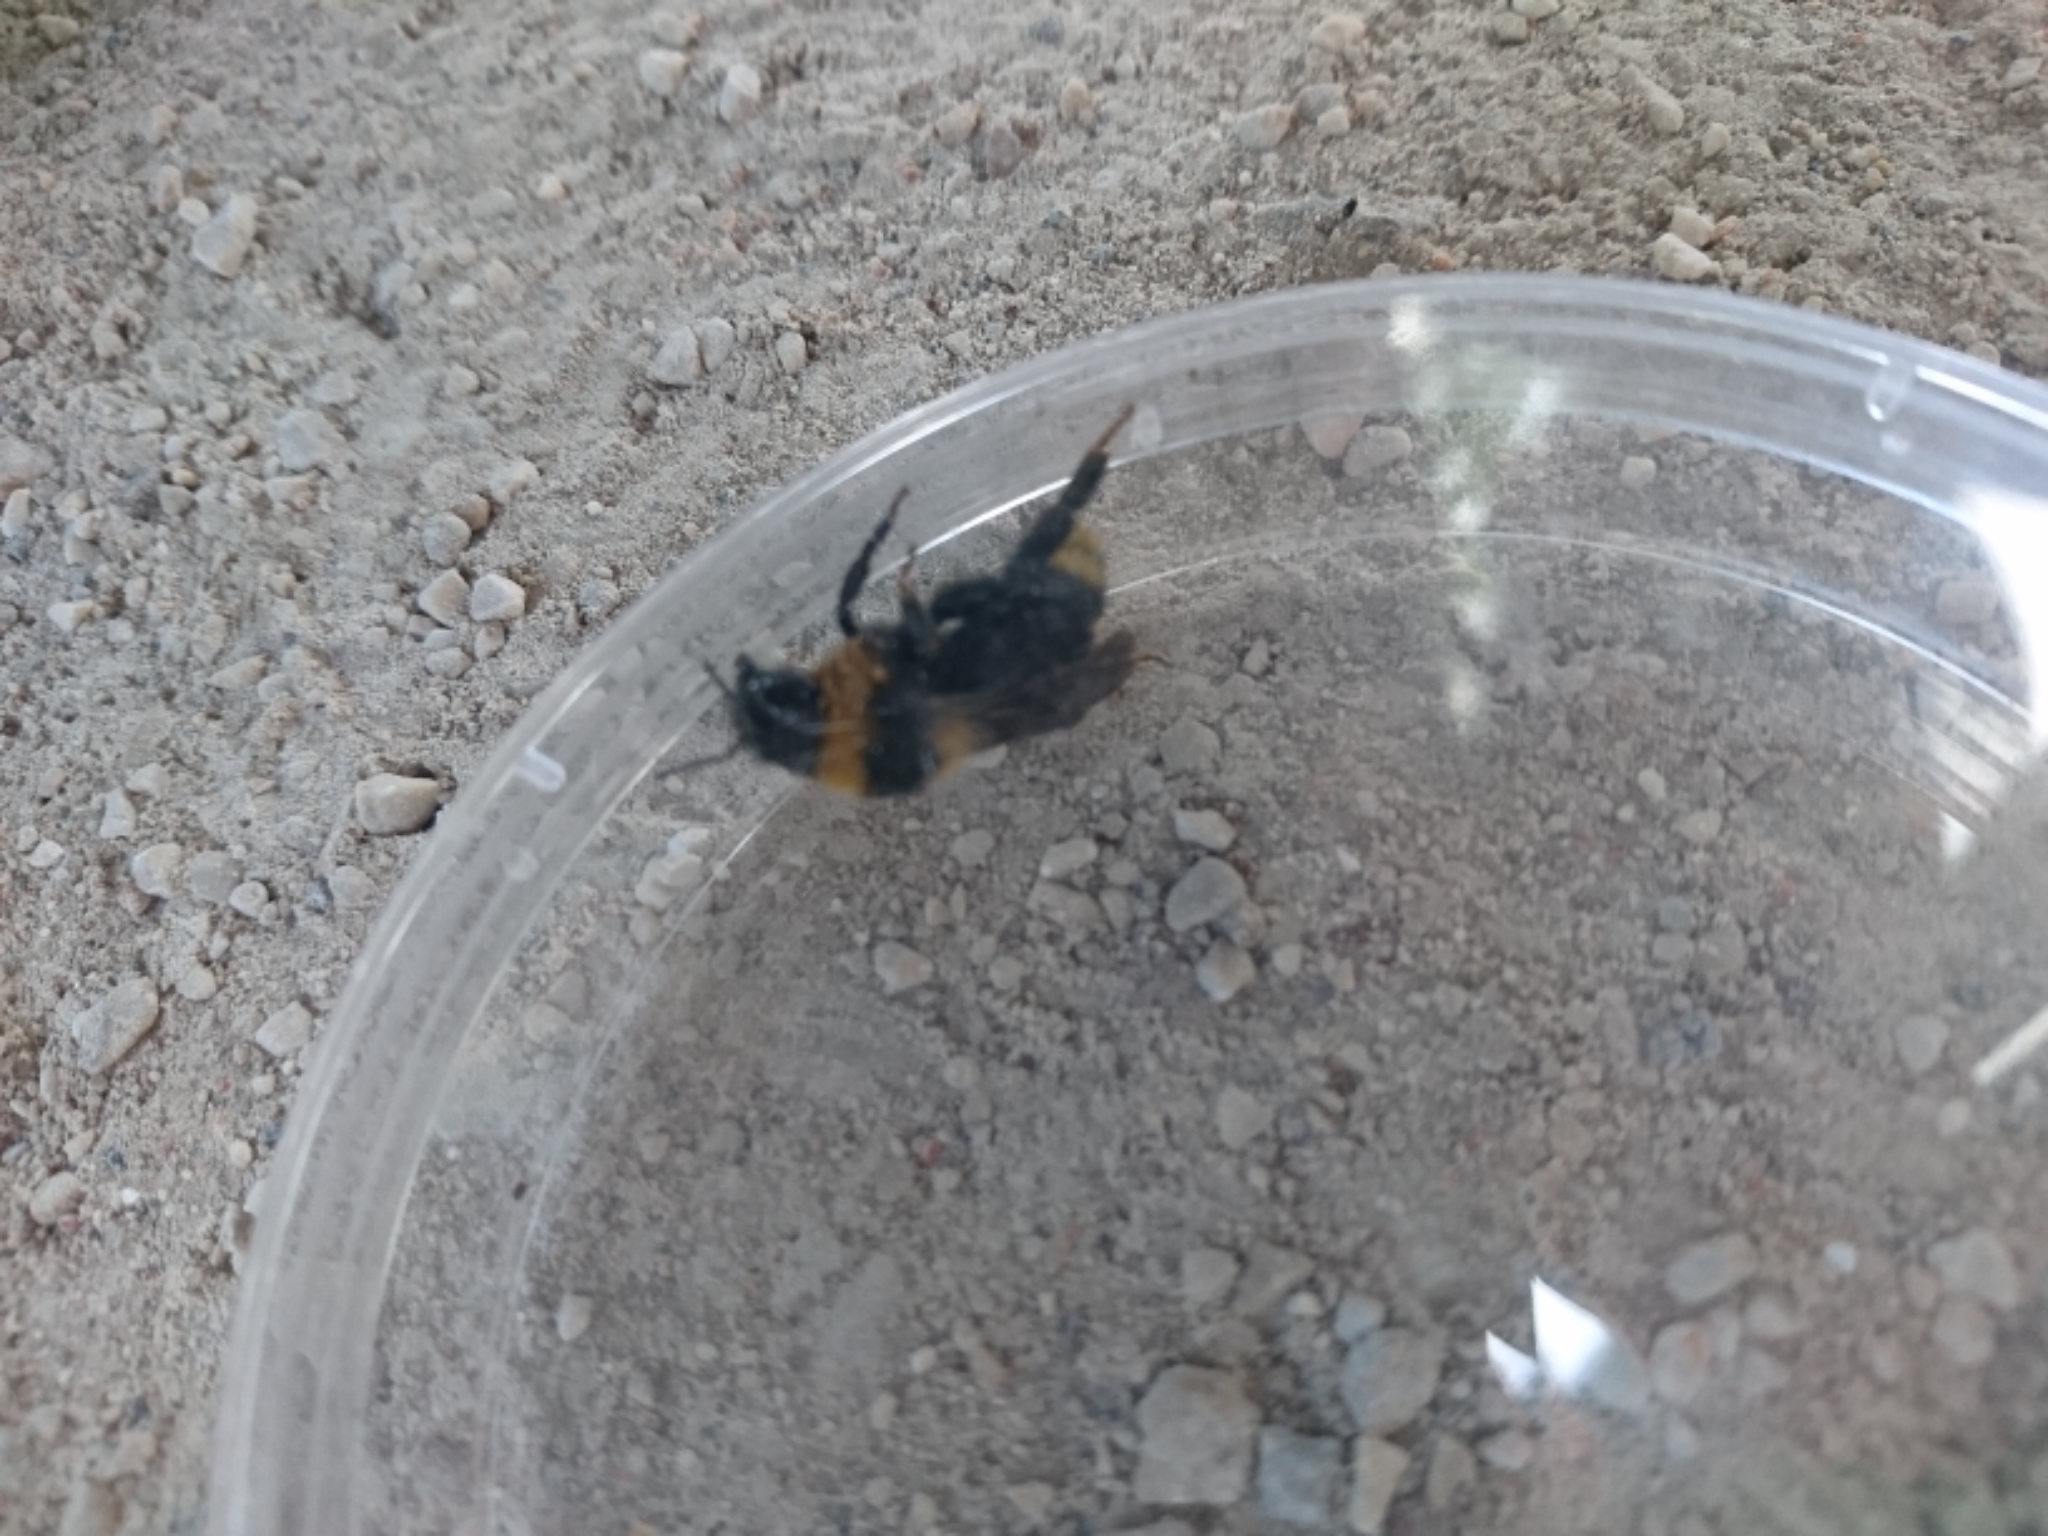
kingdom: Animalia
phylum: Arthropoda
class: Insecta
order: Hymenoptera
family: Apidae
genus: Bombus
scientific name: Bombus campestris
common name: Field cuckoo-bee
